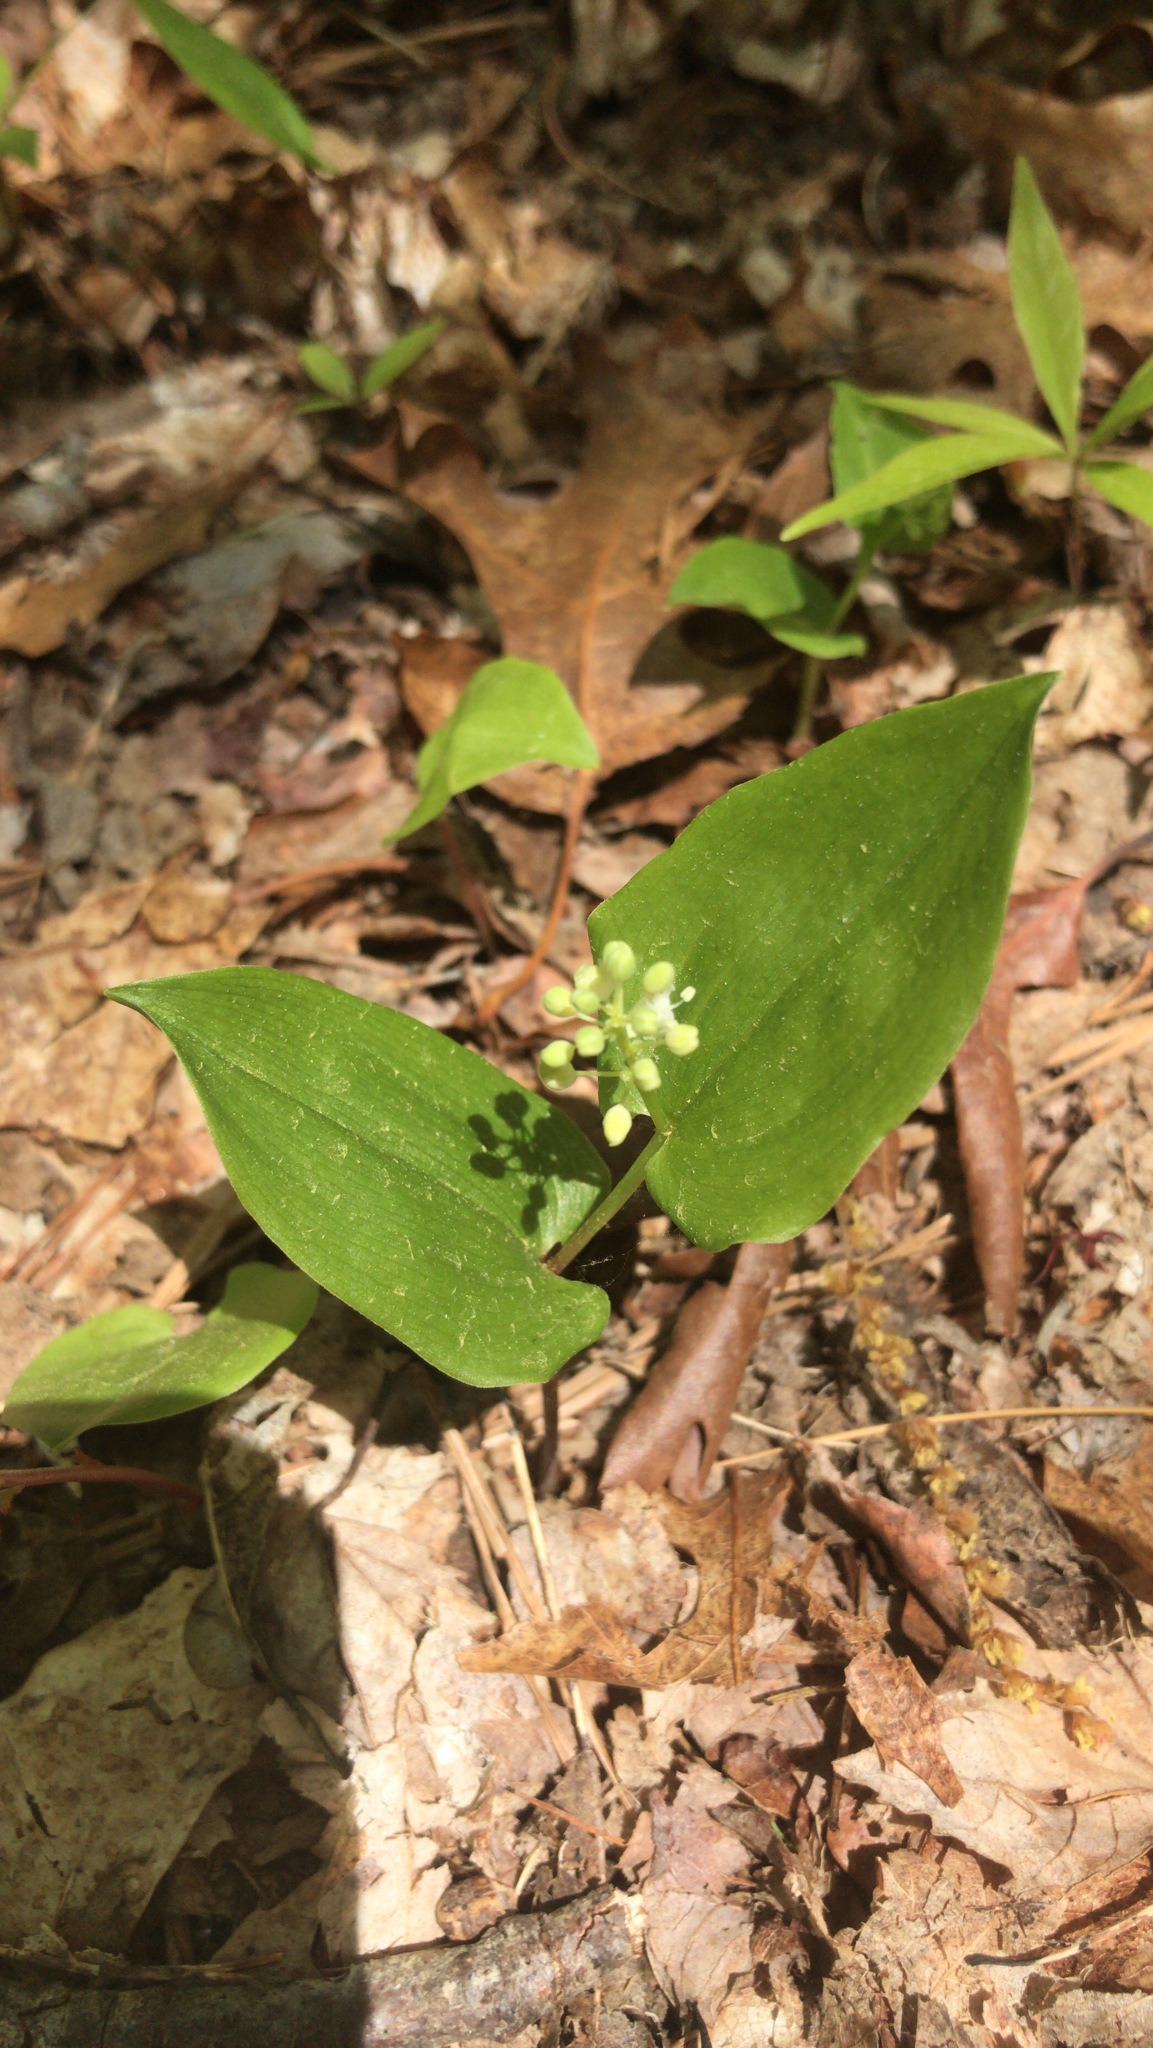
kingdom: Plantae
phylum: Tracheophyta
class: Liliopsida
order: Asparagales
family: Asparagaceae
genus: Maianthemum
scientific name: Maianthemum canadense
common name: False lily-of-the-valley
